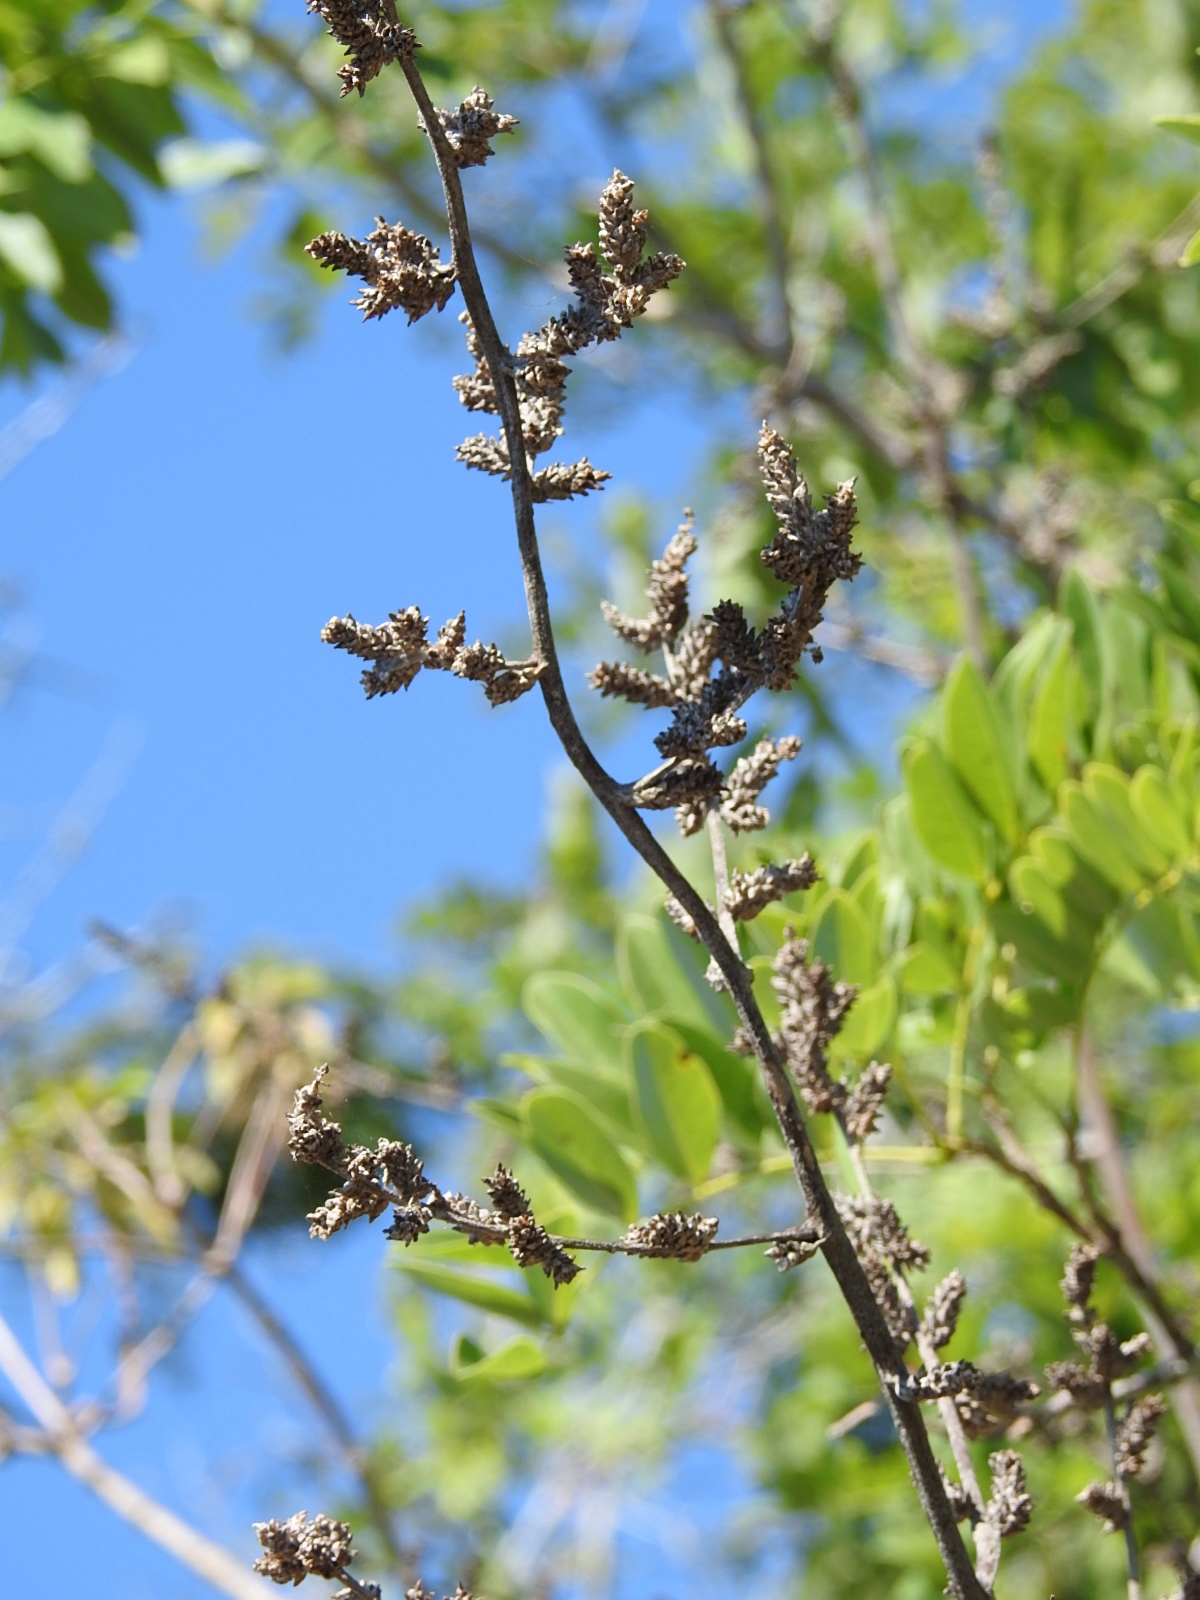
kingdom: Plantae
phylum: Tracheophyta
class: Liliopsida
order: Poales
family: Bromeliaceae
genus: Hechtia
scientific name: Hechtia glomerata
